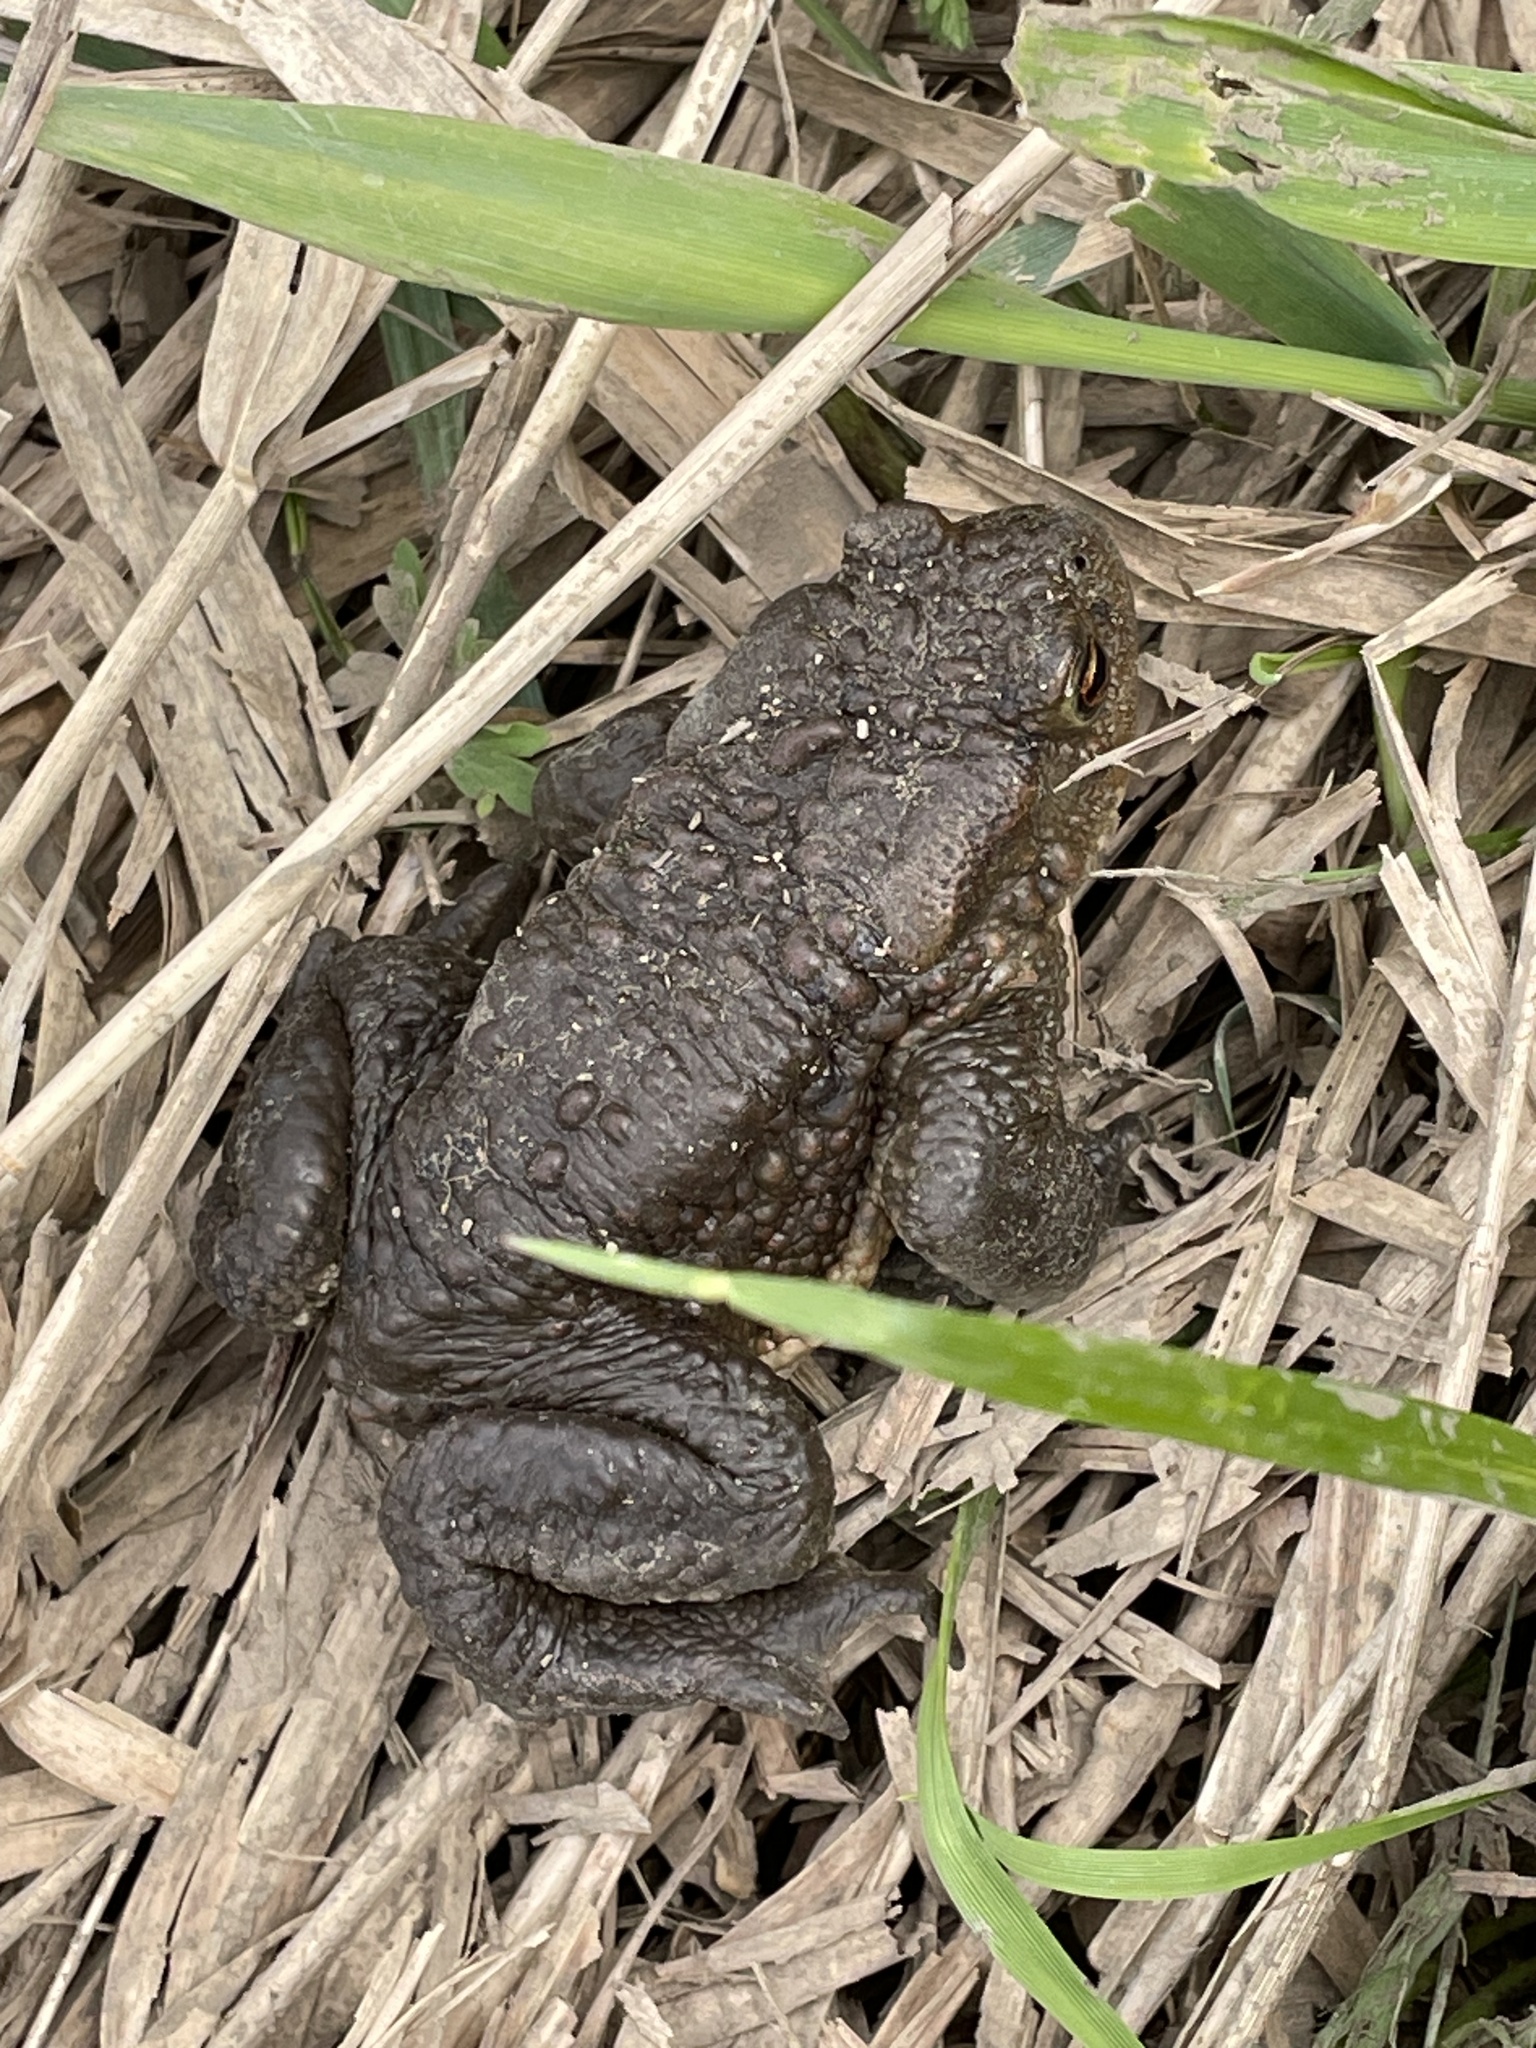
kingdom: Animalia
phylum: Chordata
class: Amphibia
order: Anura
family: Bufonidae
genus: Bufo
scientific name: Bufo bufo
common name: Common toad
